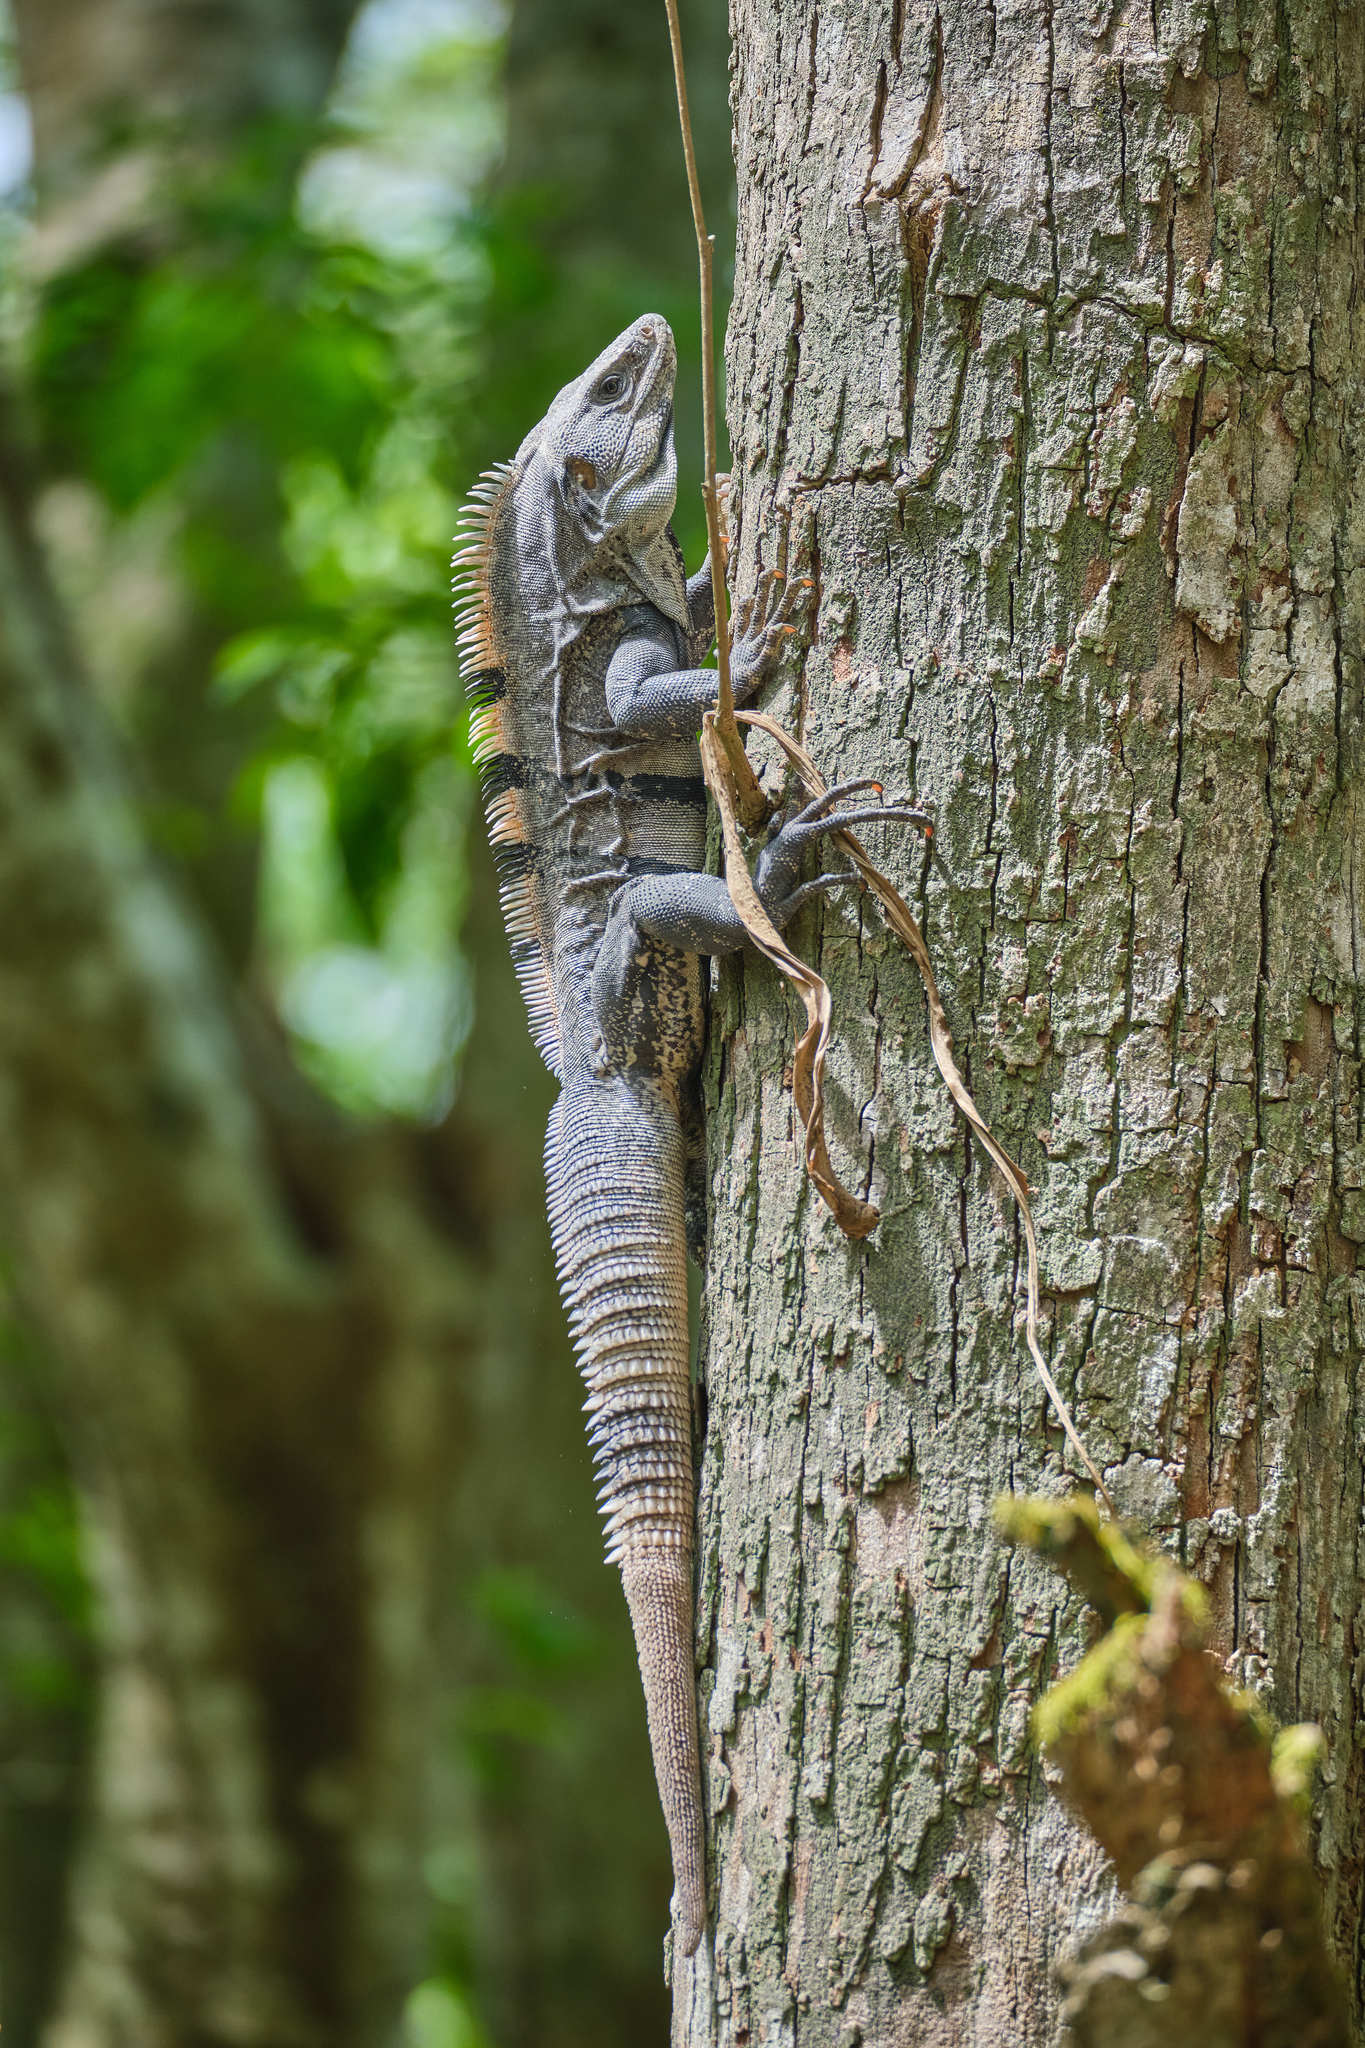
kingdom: Animalia
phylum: Chordata
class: Squamata
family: Iguanidae
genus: Ctenosaura
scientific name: Ctenosaura similis
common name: Black spiny-tailed iguana
